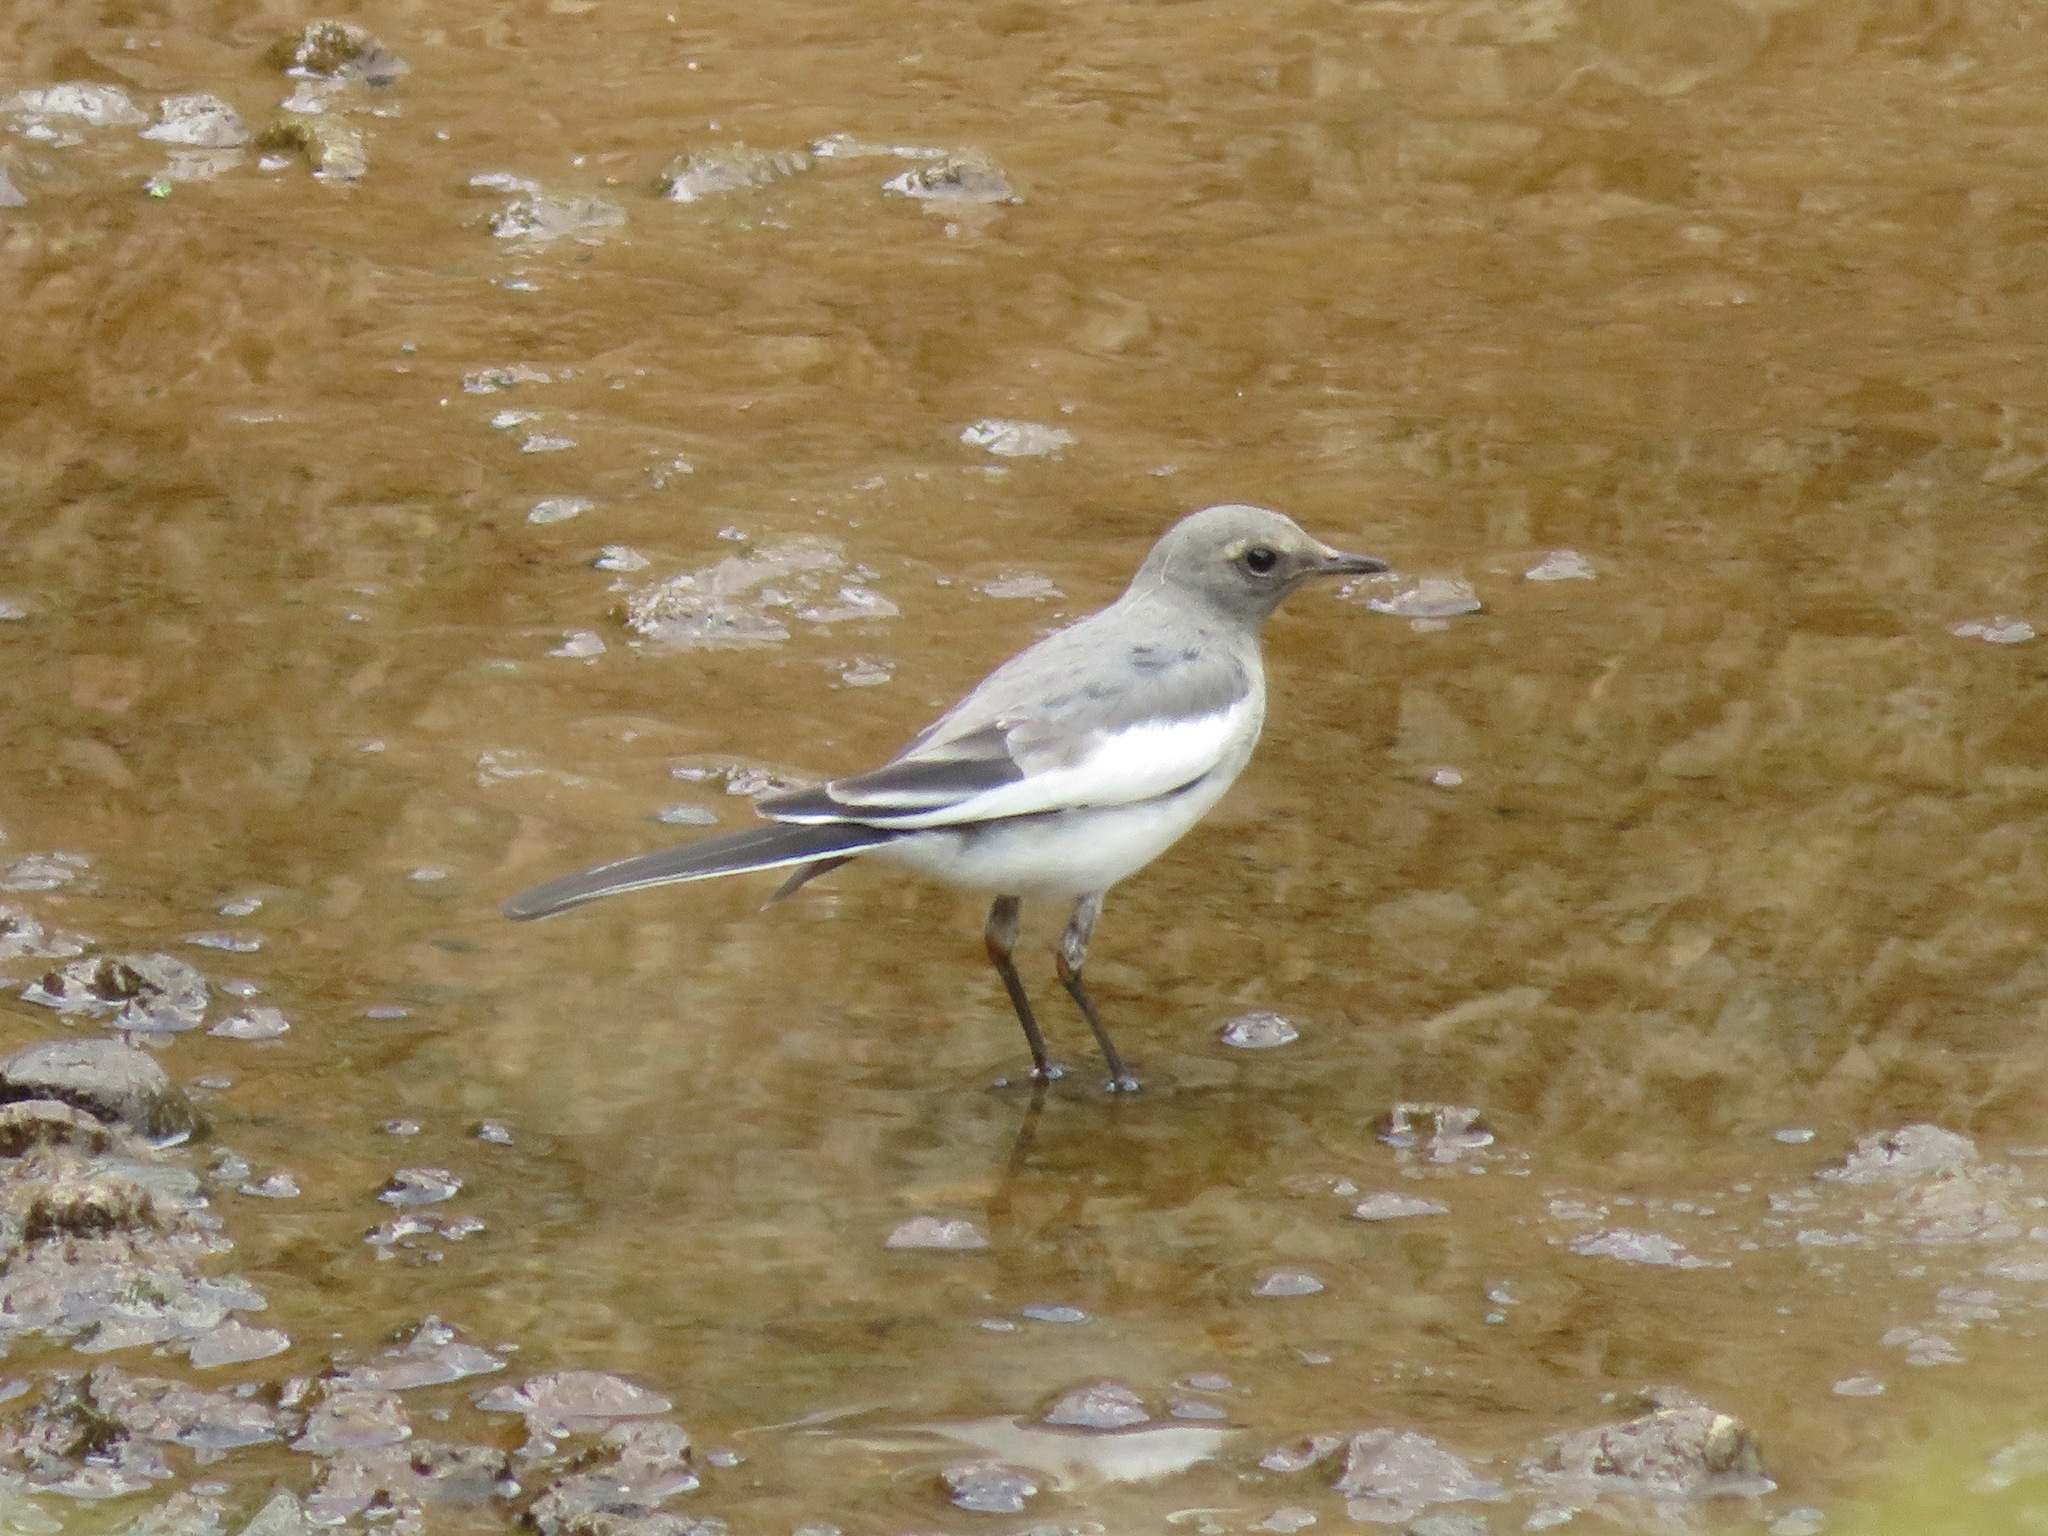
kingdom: Animalia
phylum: Chordata
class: Aves
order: Passeriformes
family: Motacillidae
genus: Motacilla
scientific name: Motacilla grandis
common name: Japanese wagtail
